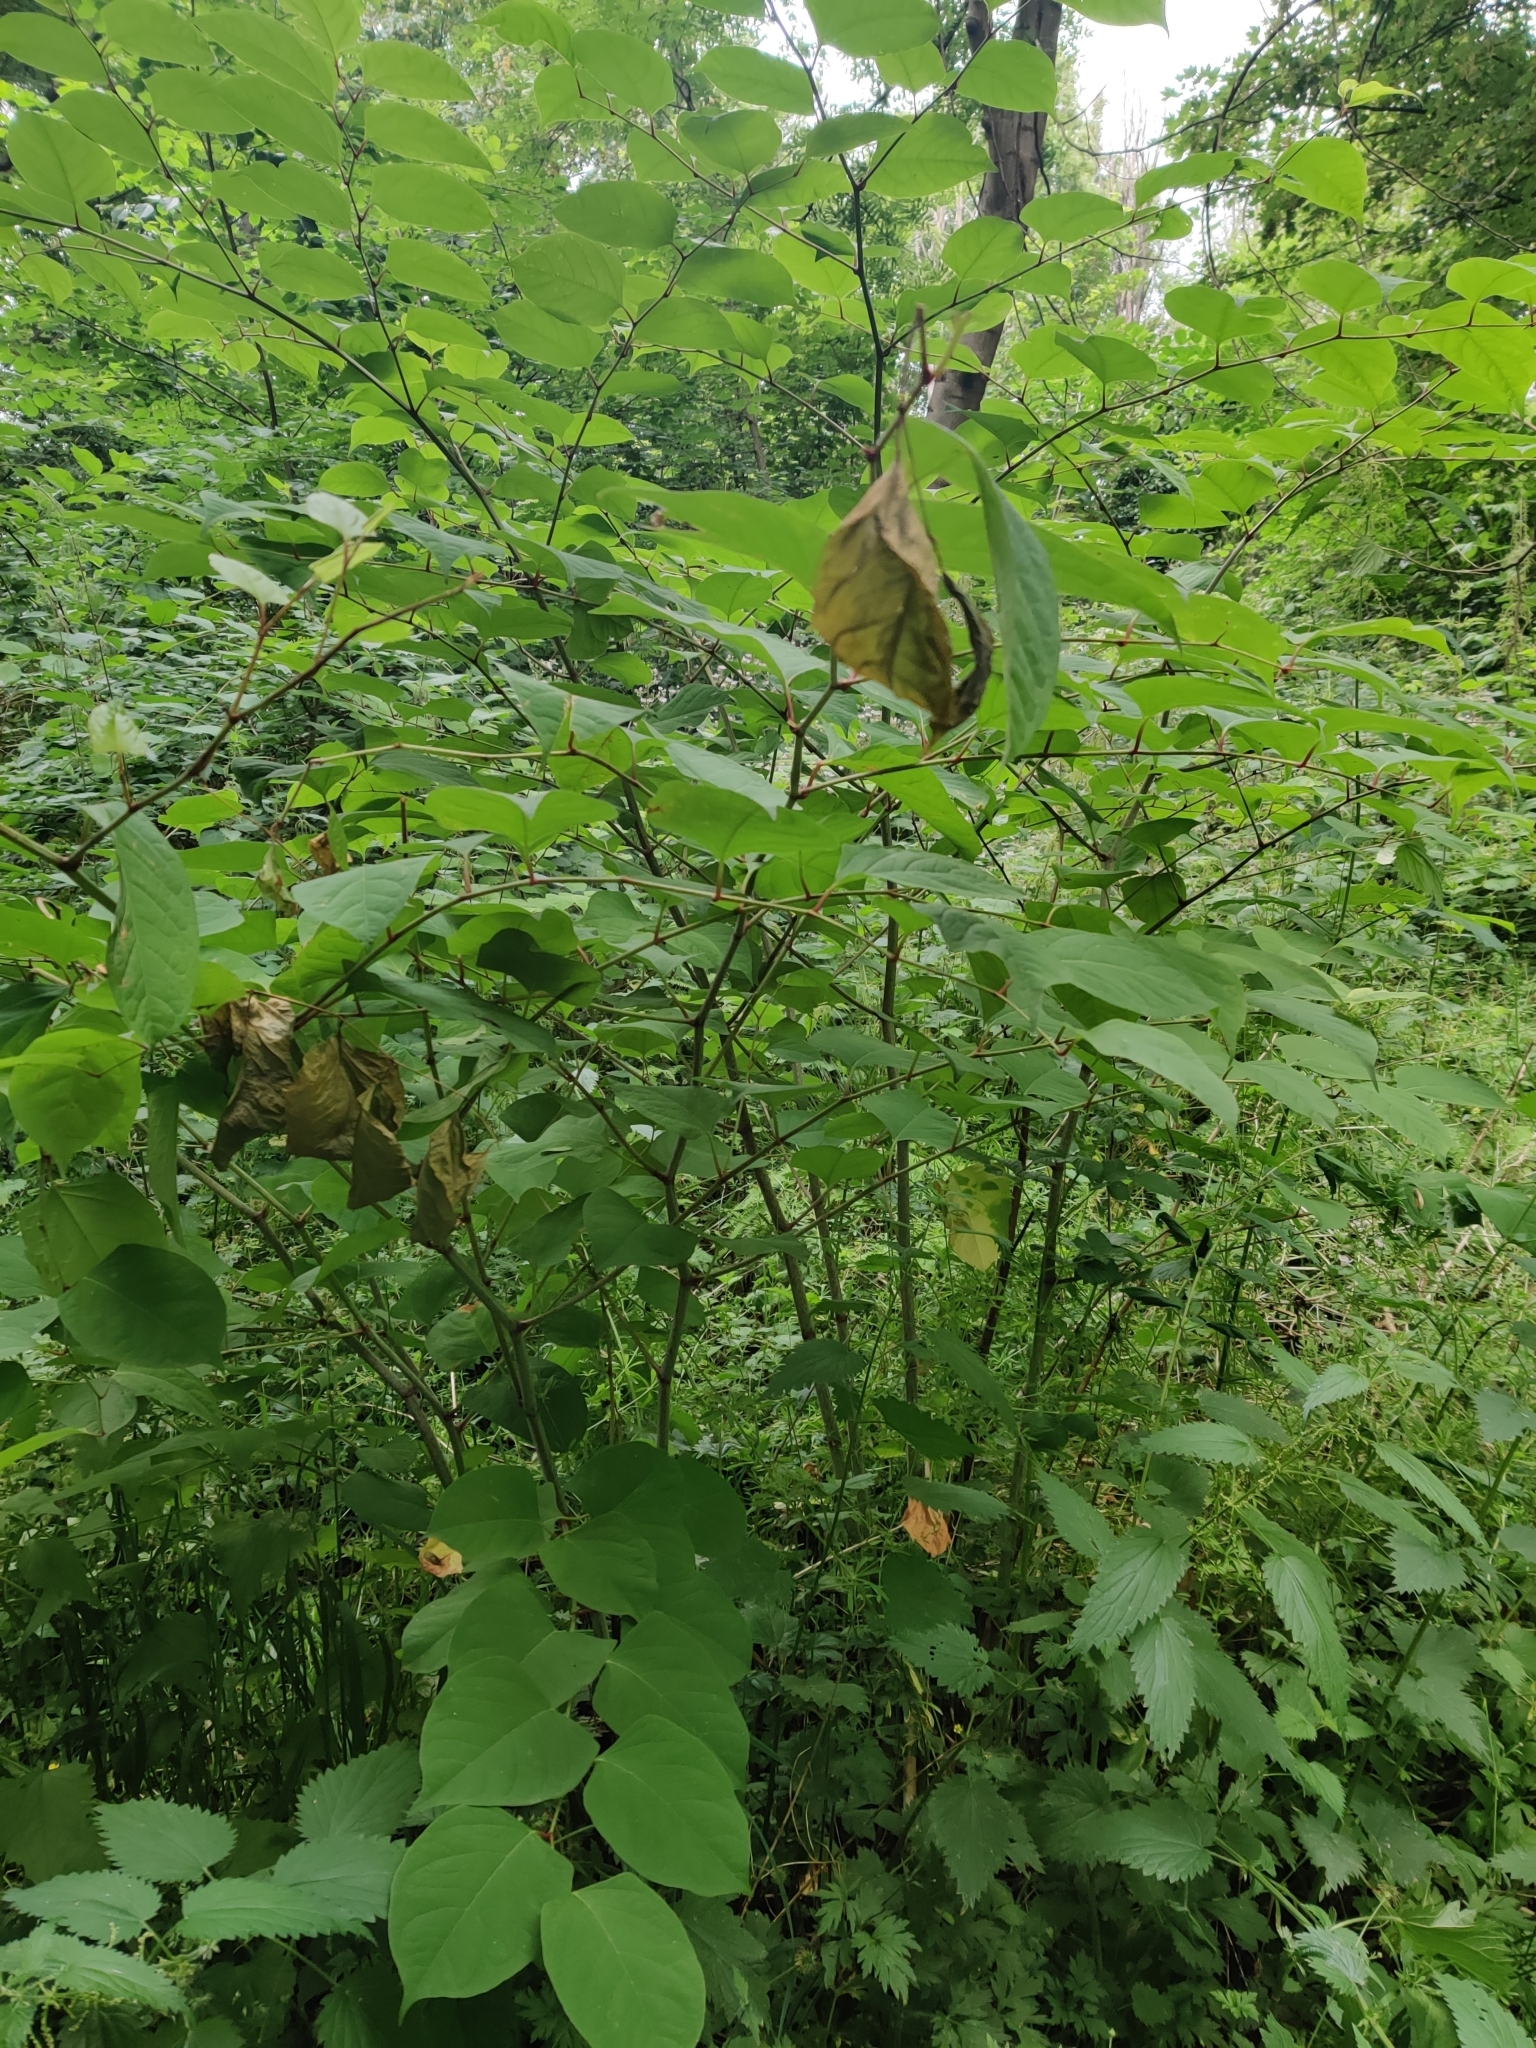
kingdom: Plantae
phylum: Tracheophyta
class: Magnoliopsida
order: Caryophyllales
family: Polygonaceae
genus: Reynoutria
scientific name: Reynoutria japonica
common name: Japanese knotweed
